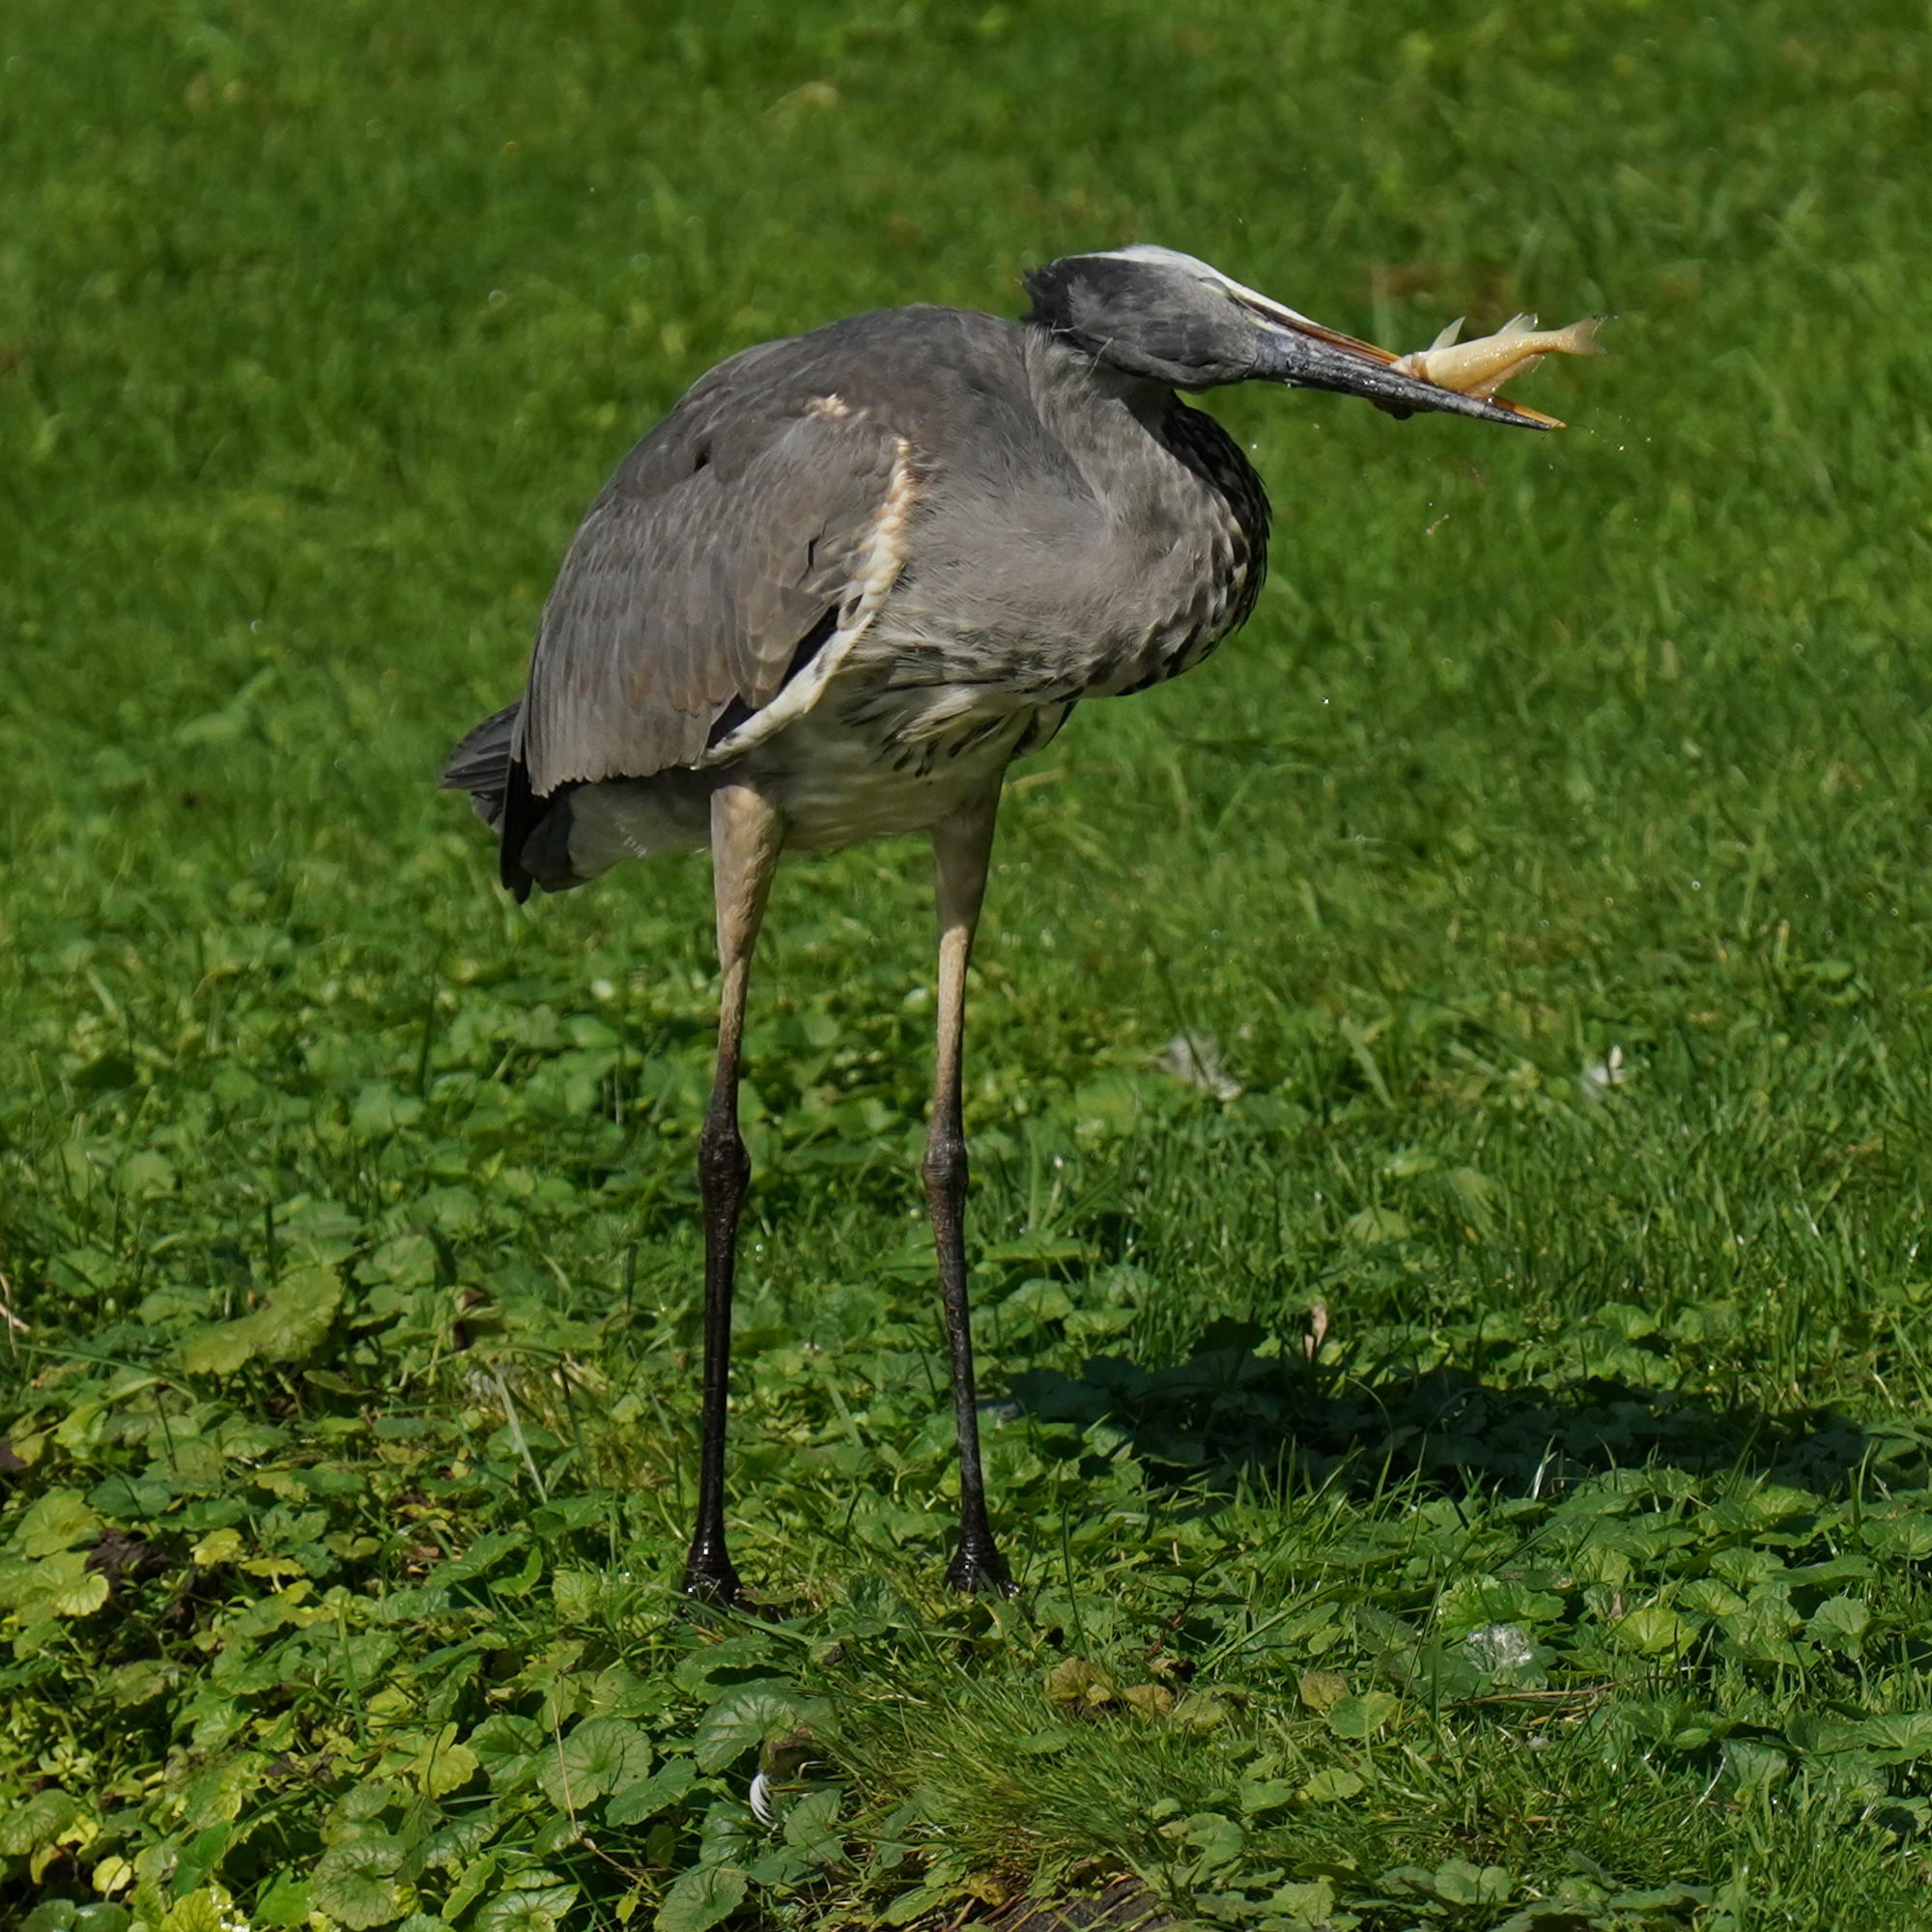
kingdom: Animalia
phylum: Chordata
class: Aves
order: Pelecaniformes
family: Ardeidae
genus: Ardea
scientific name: Ardea cinerea
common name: Grey heron
